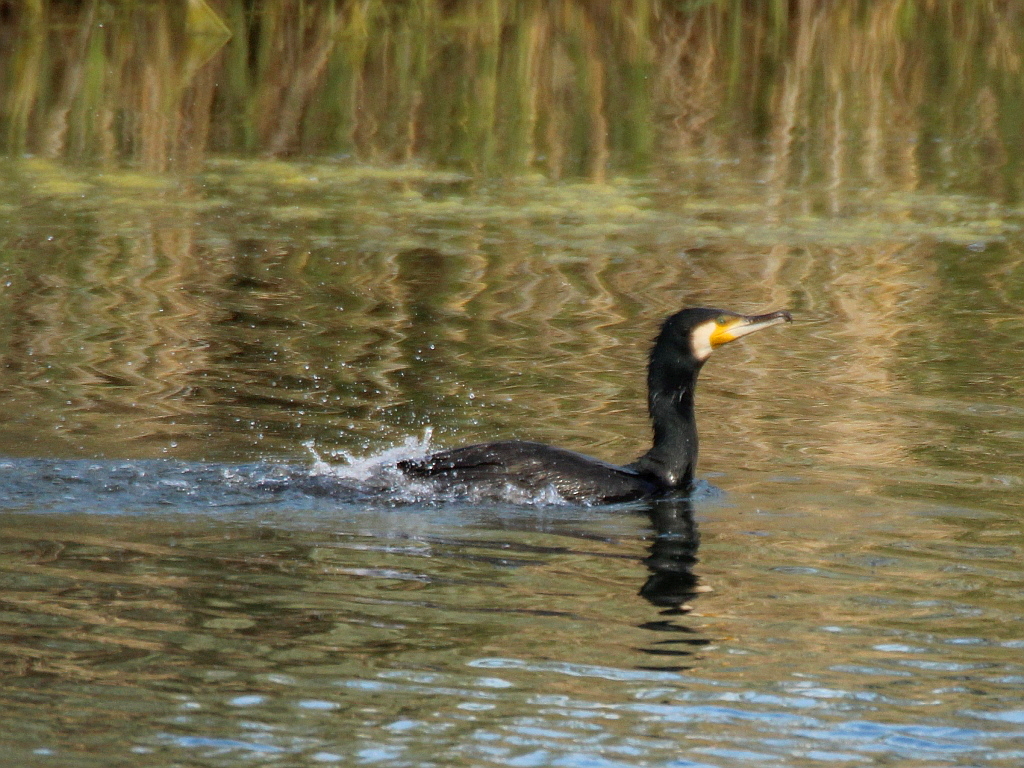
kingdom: Animalia
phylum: Chordata
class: Aves
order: Suliformes
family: Phalacrocoracidae
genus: Phalacrocorax
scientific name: Phalacrocorax carbo
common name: Great cormorant
